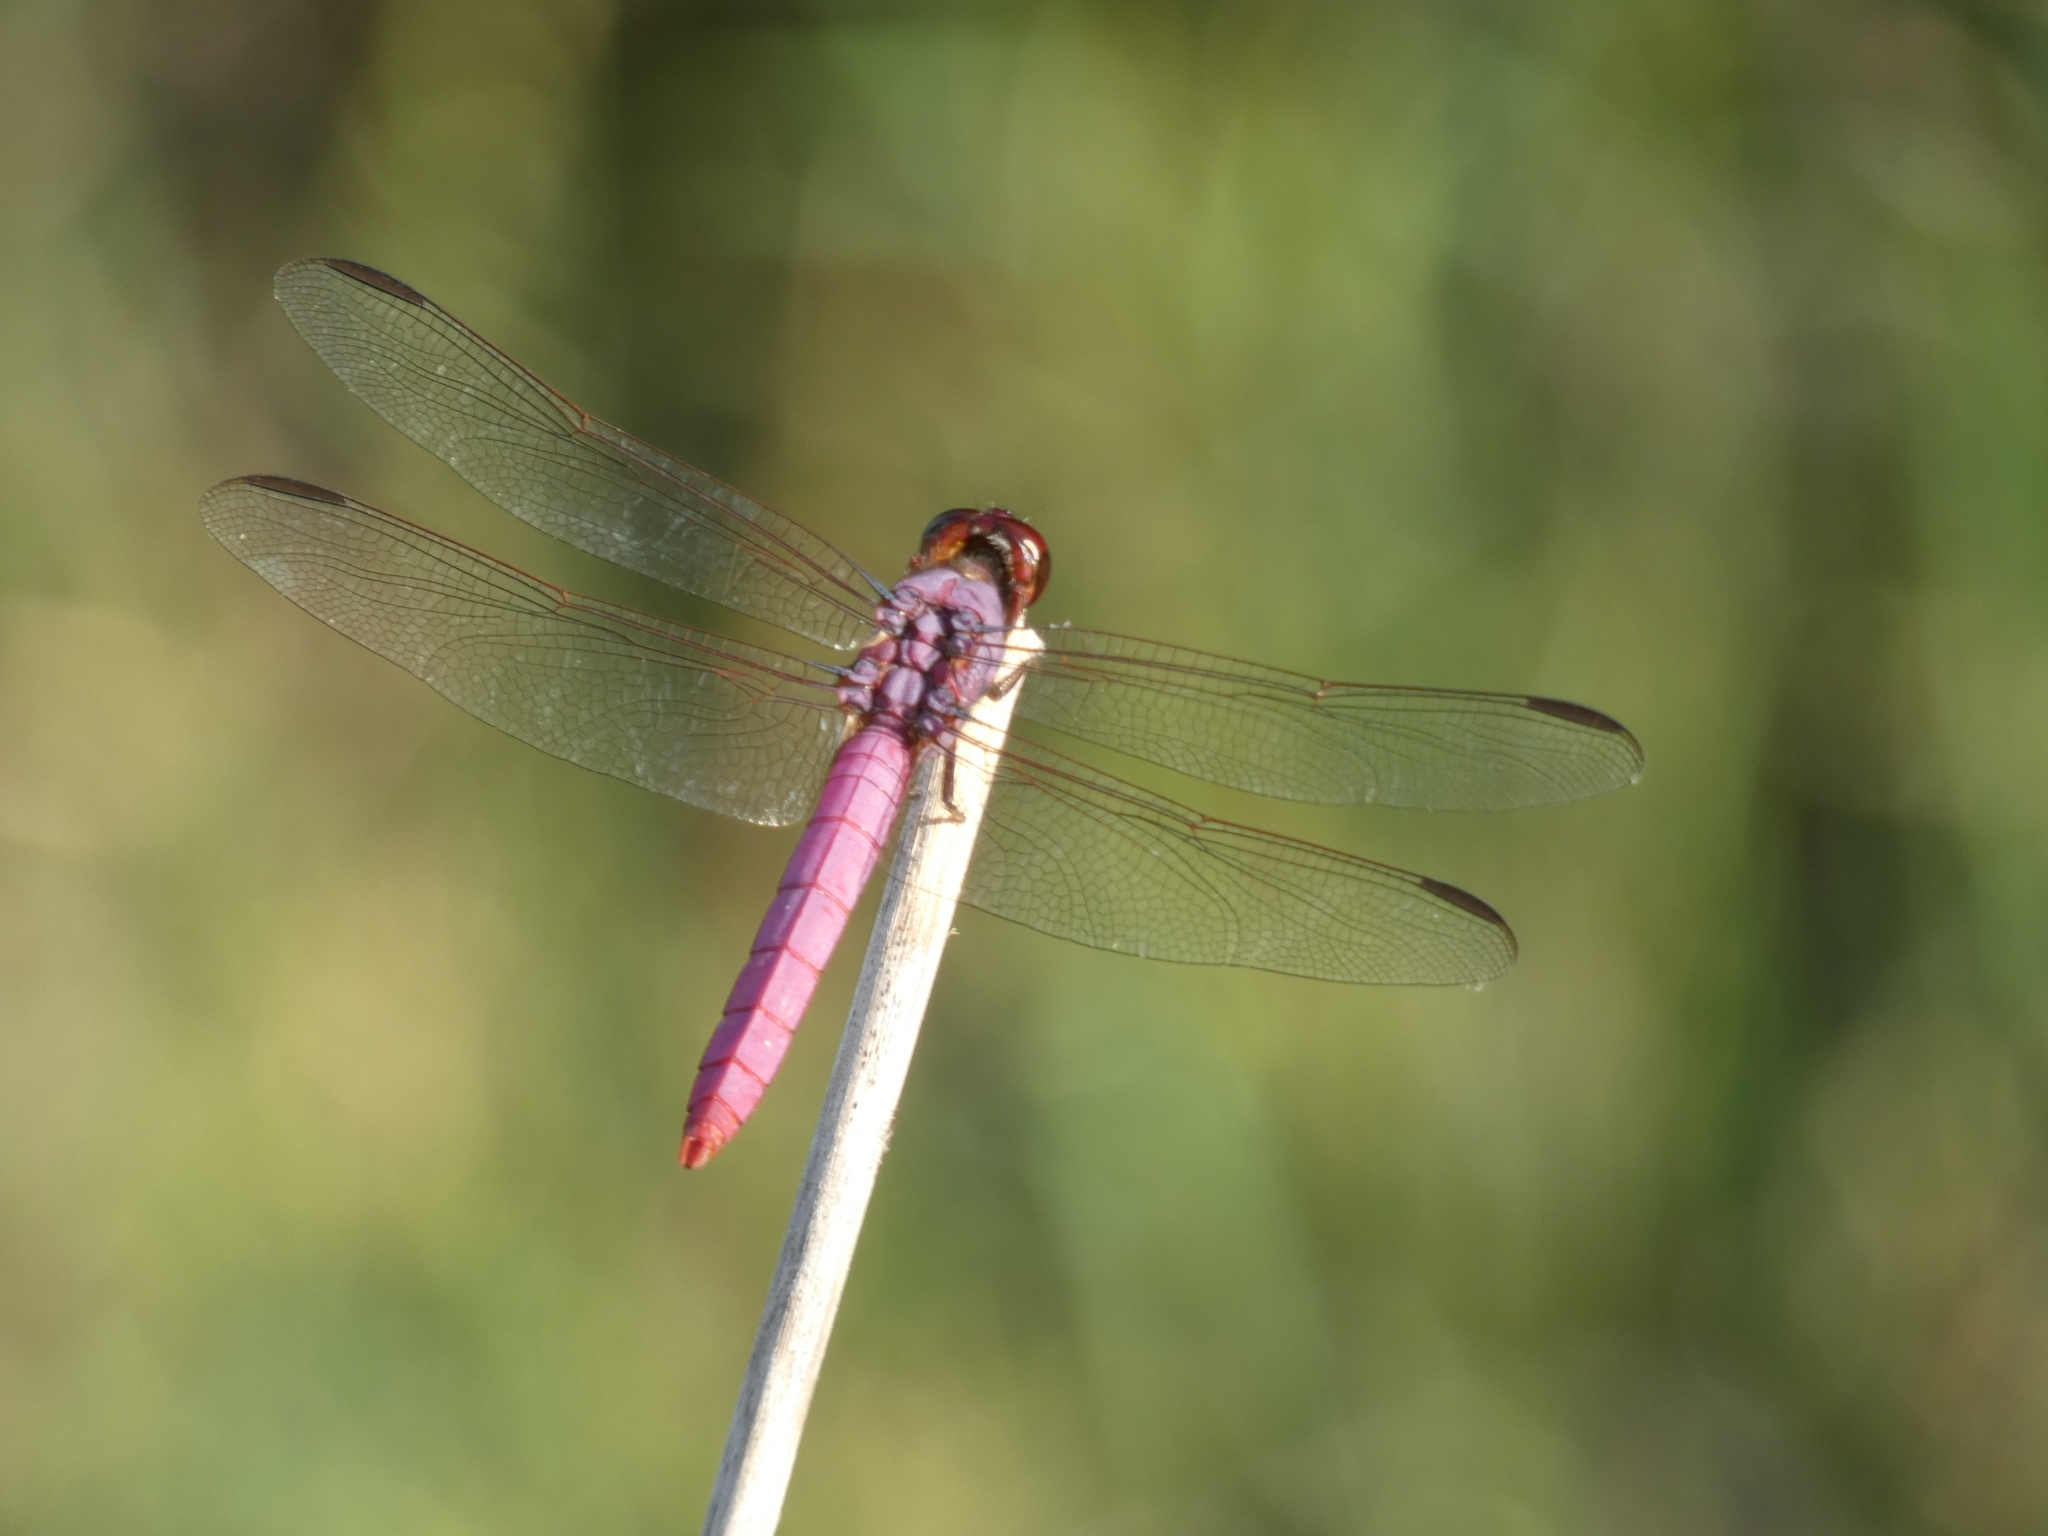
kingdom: Animalia
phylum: Arthropoda
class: Insecta
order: Odonata
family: Libellulidae
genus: Orthemis
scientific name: Orthemis ferruginea
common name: Roseate skimmer
